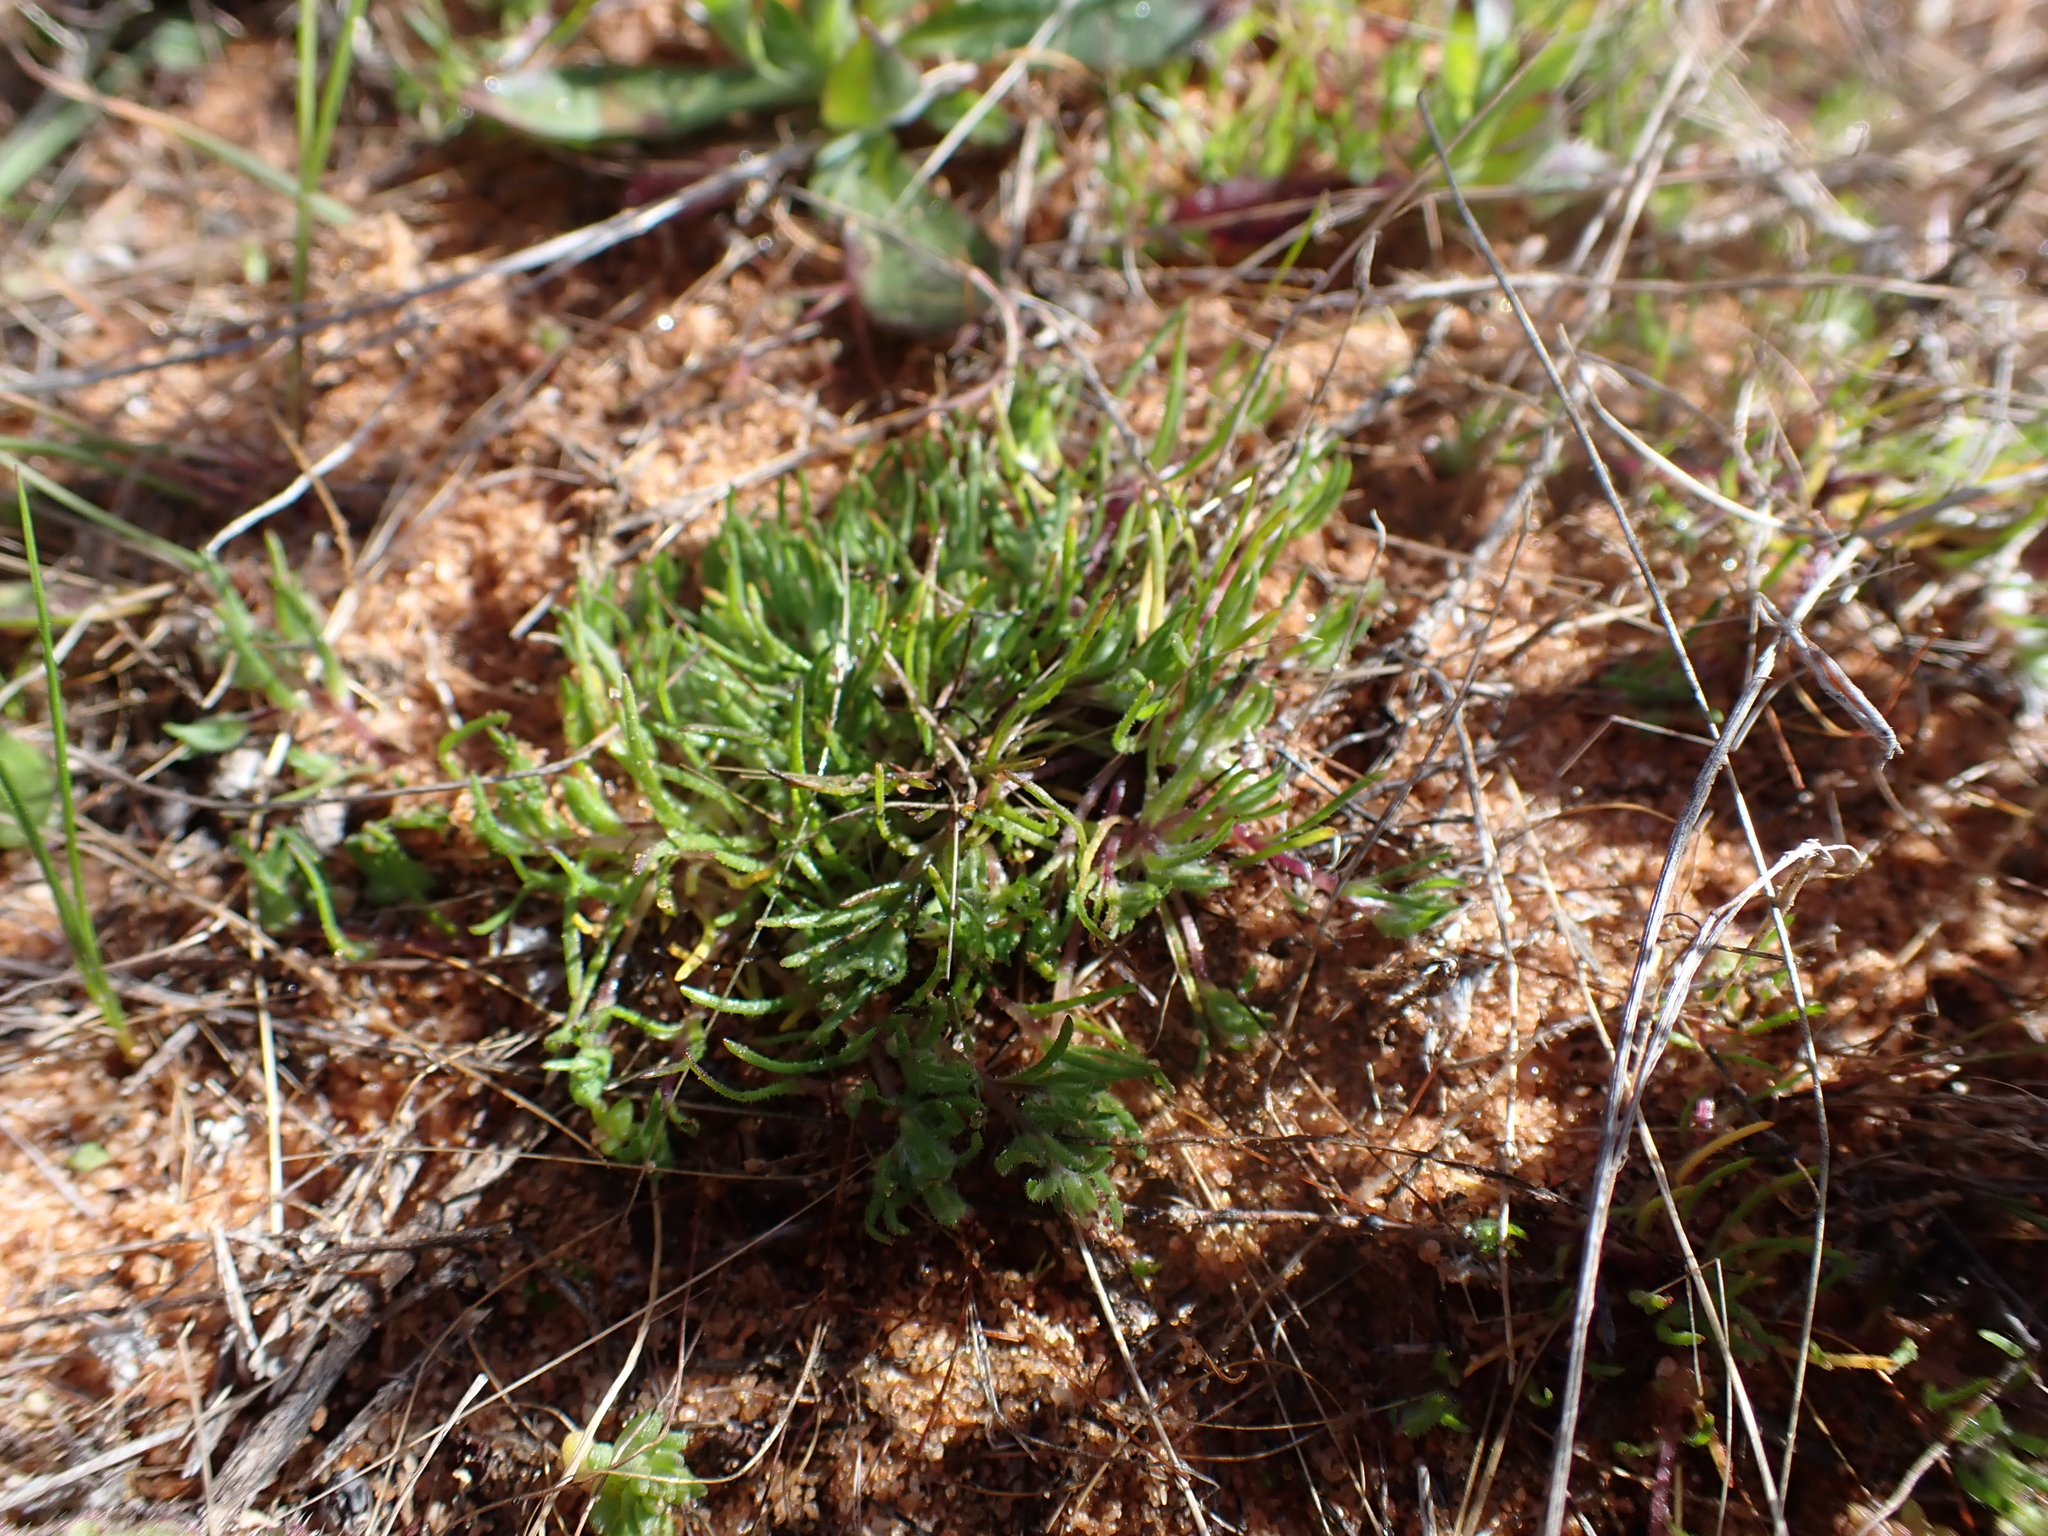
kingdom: Plantae
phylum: Tracheophyta
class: Magnoliopsida
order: Asterales
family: Asteraceae
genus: Millotia
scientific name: Millotia perpusilla
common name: Tiny bow-flower
